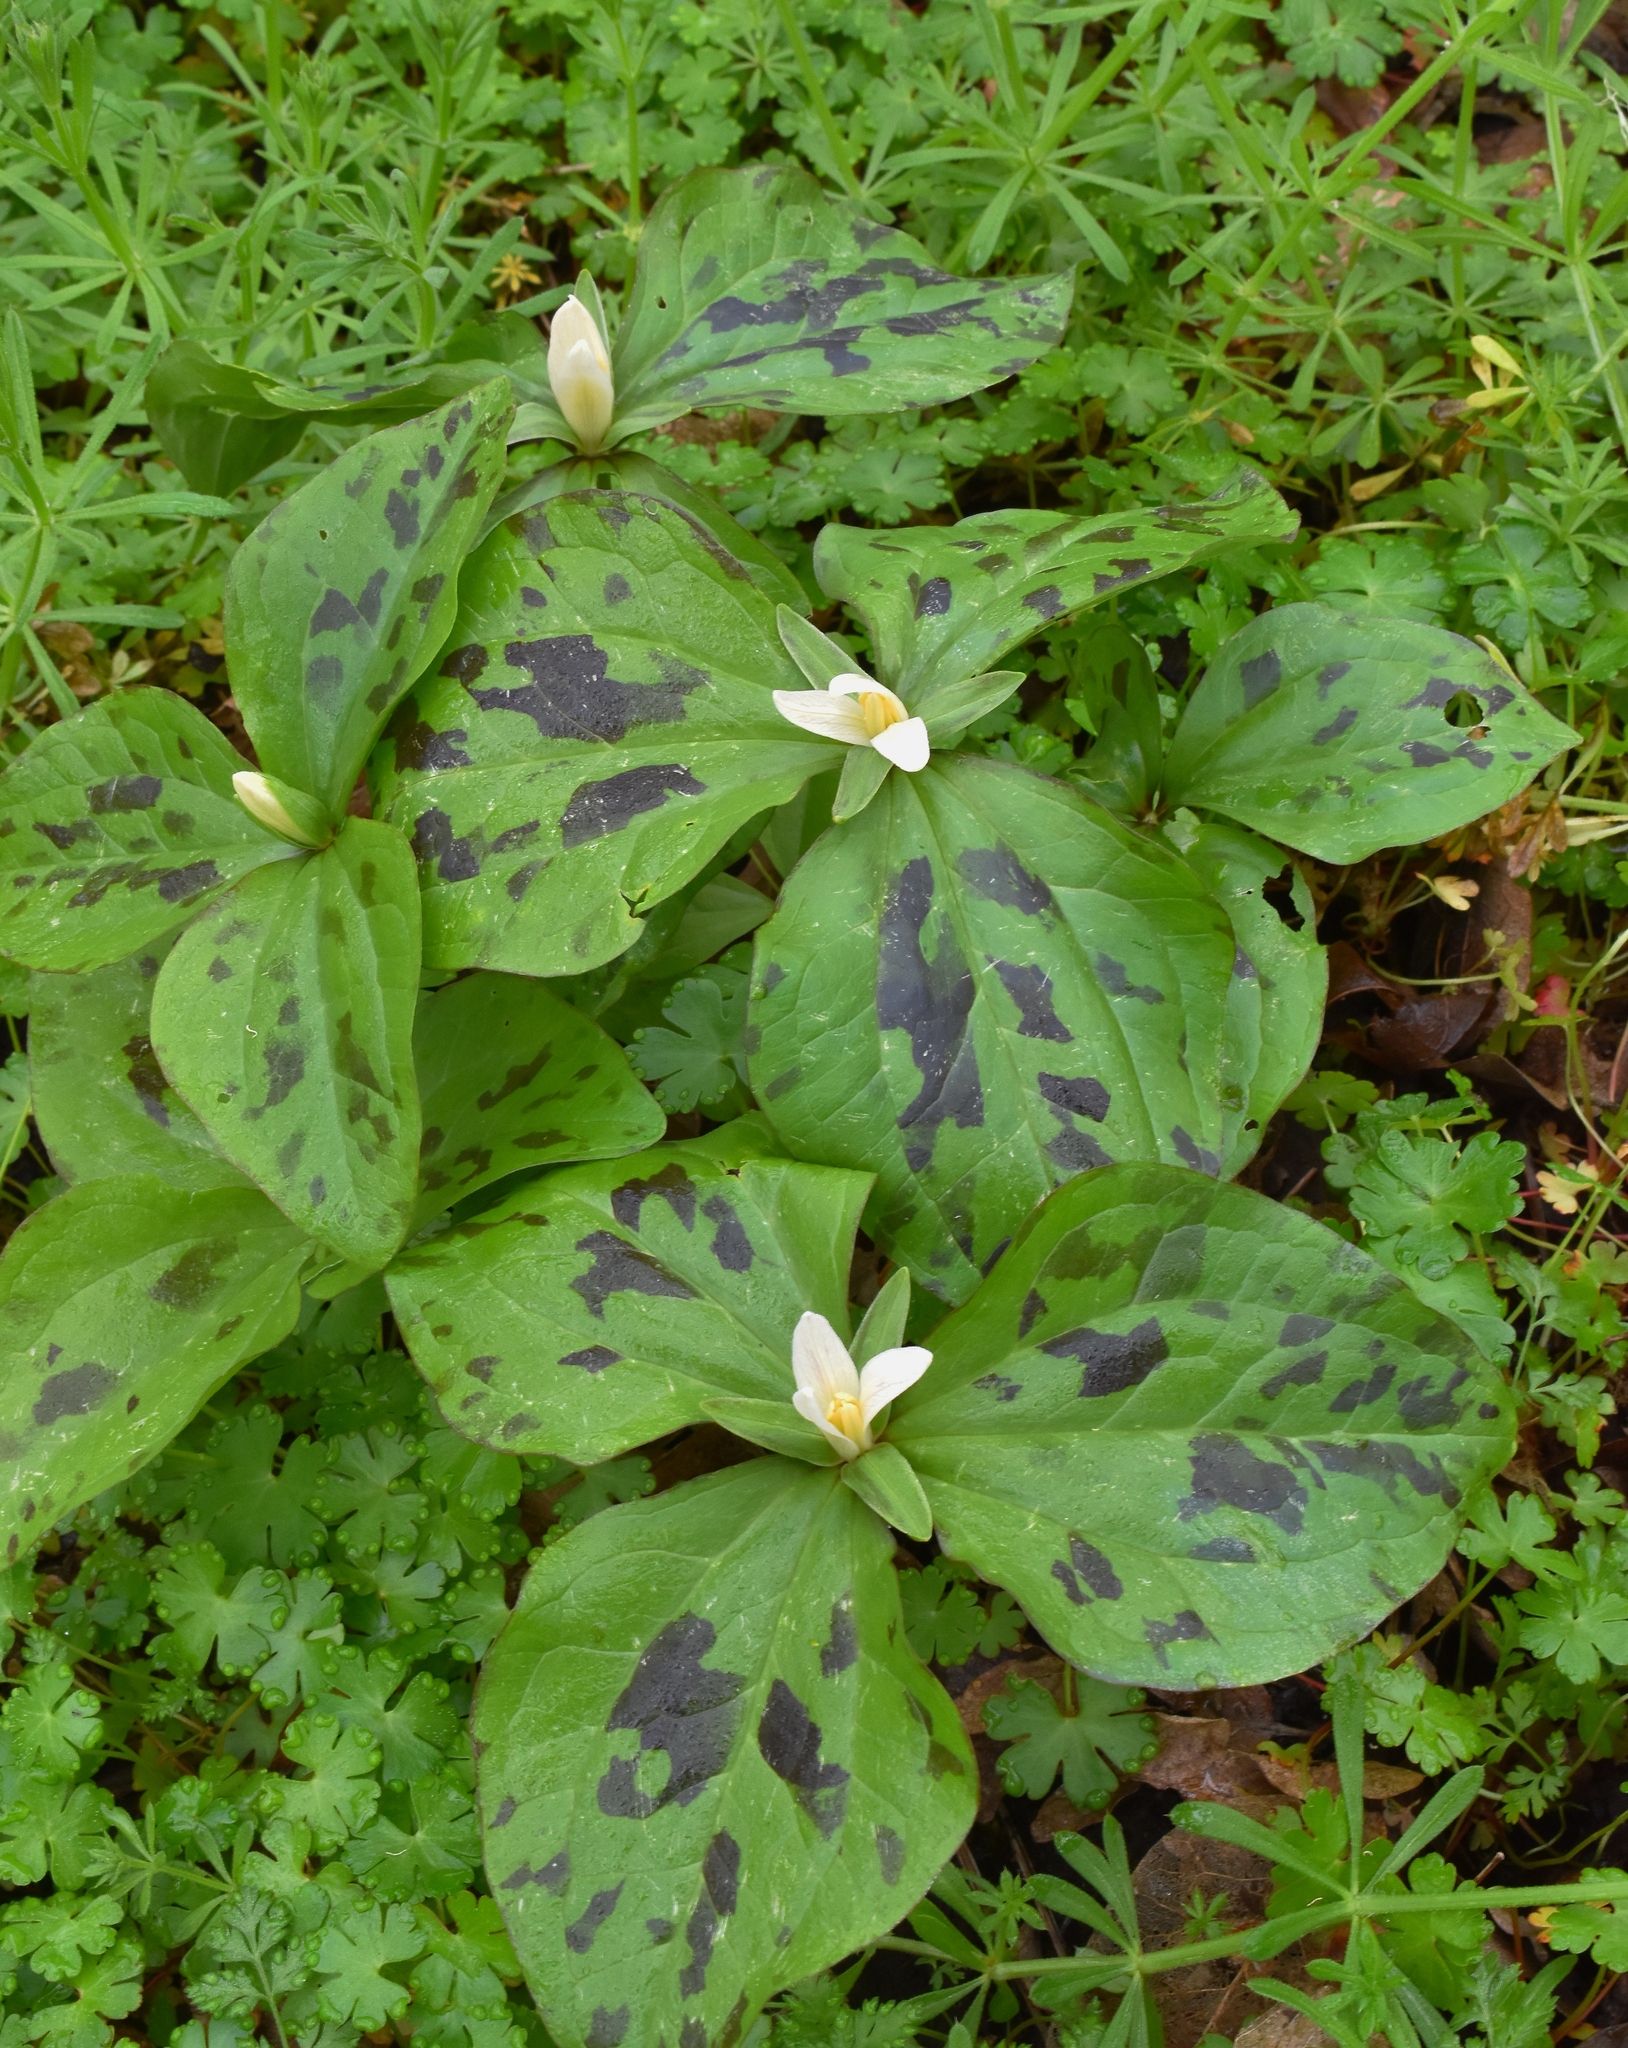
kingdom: Plantae
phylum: Tracheophyta
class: Liliopsida
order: Liliales
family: Melanthiaceae
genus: Trillium
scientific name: Trillium albidum
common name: Freeman's trillium
